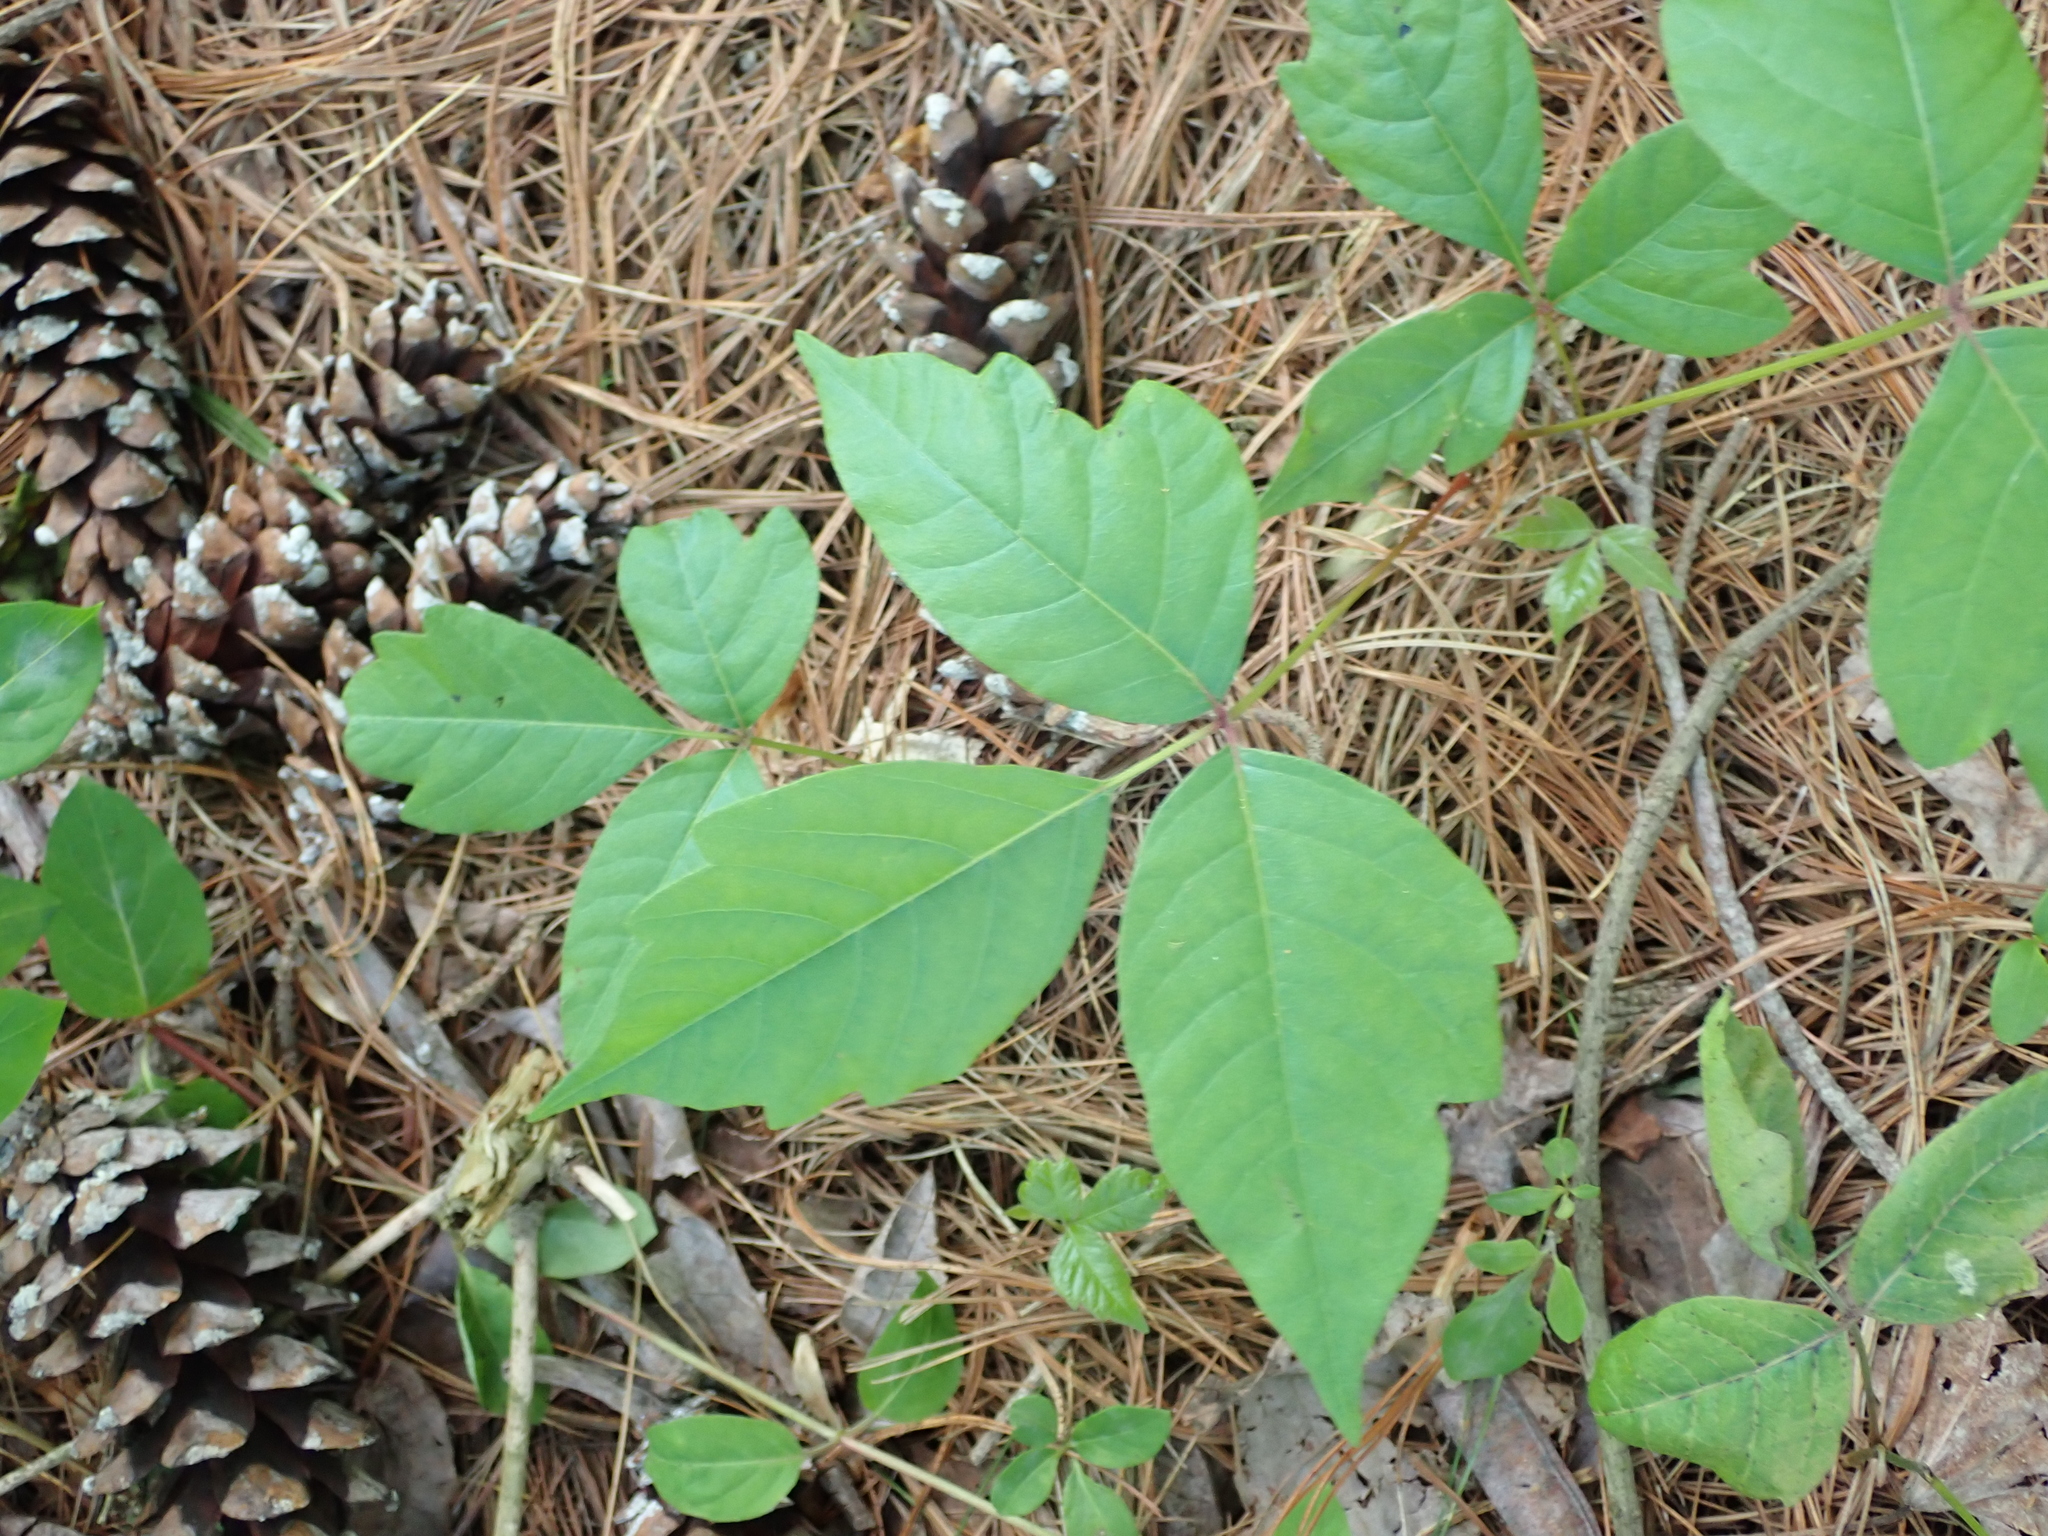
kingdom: Plantae
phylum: Tracheophyta
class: Magnoliopsida
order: Sapindales
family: Anacardiaceae
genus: Toxicodendron
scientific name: Toxicodendron radicans
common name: Poison ivy
